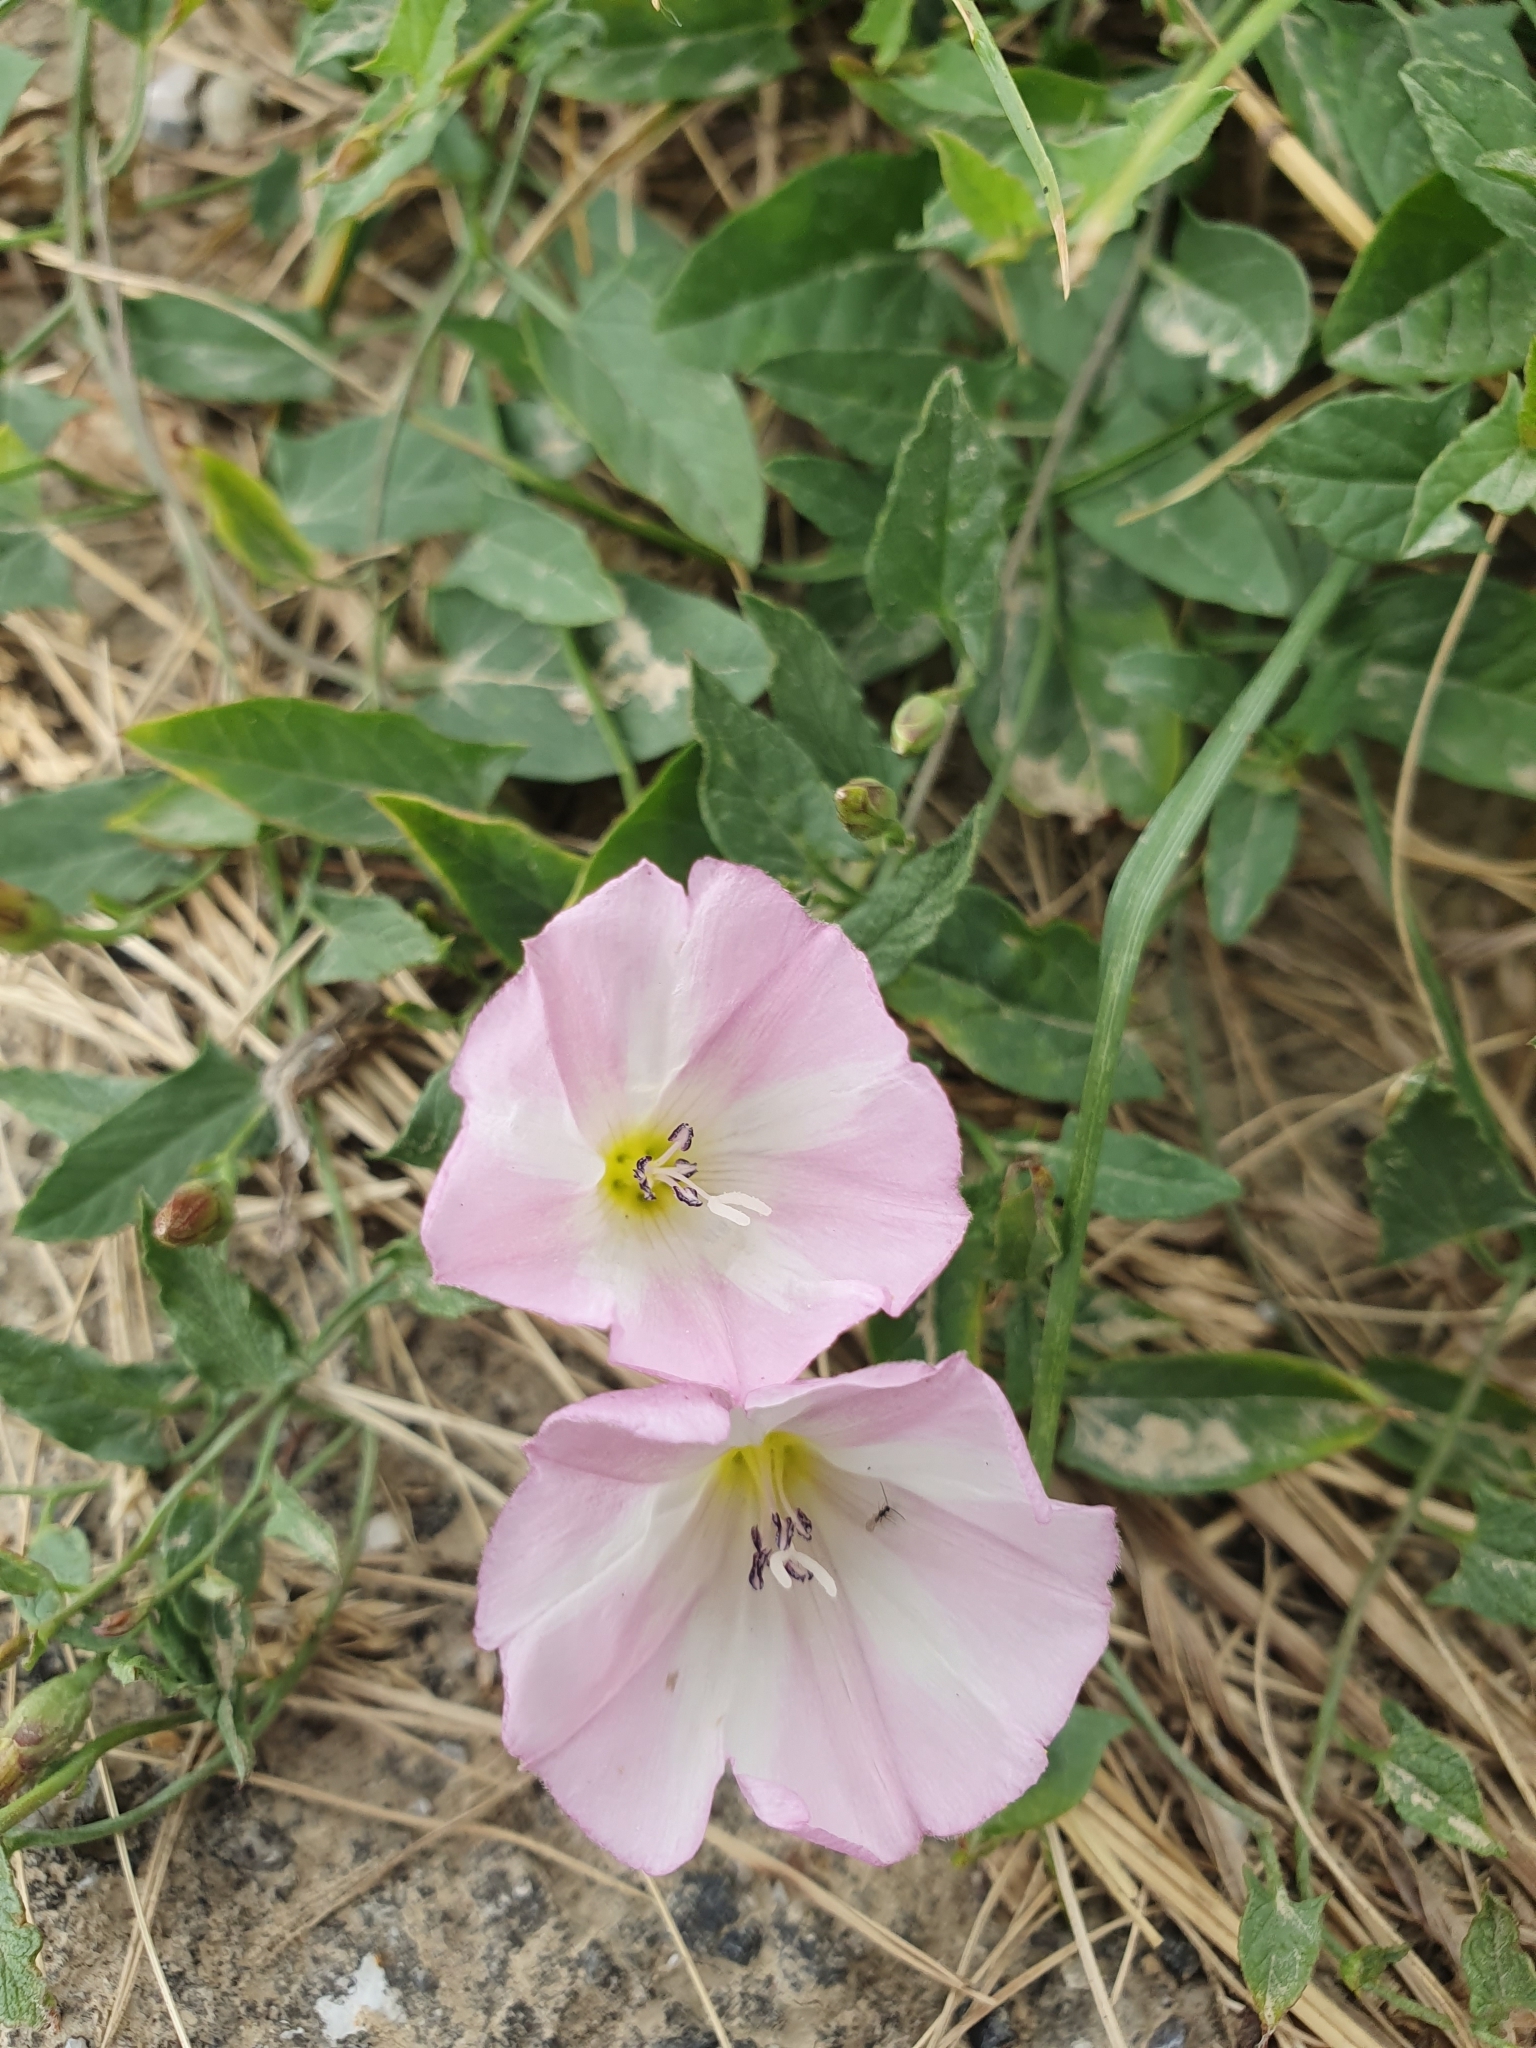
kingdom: Plantae
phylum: Tracheophyta
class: Magnoliopsida
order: Solanales
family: Convolvulaceae
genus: Convolvulus
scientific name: Convolvulus arvensis
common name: Field bindweed
